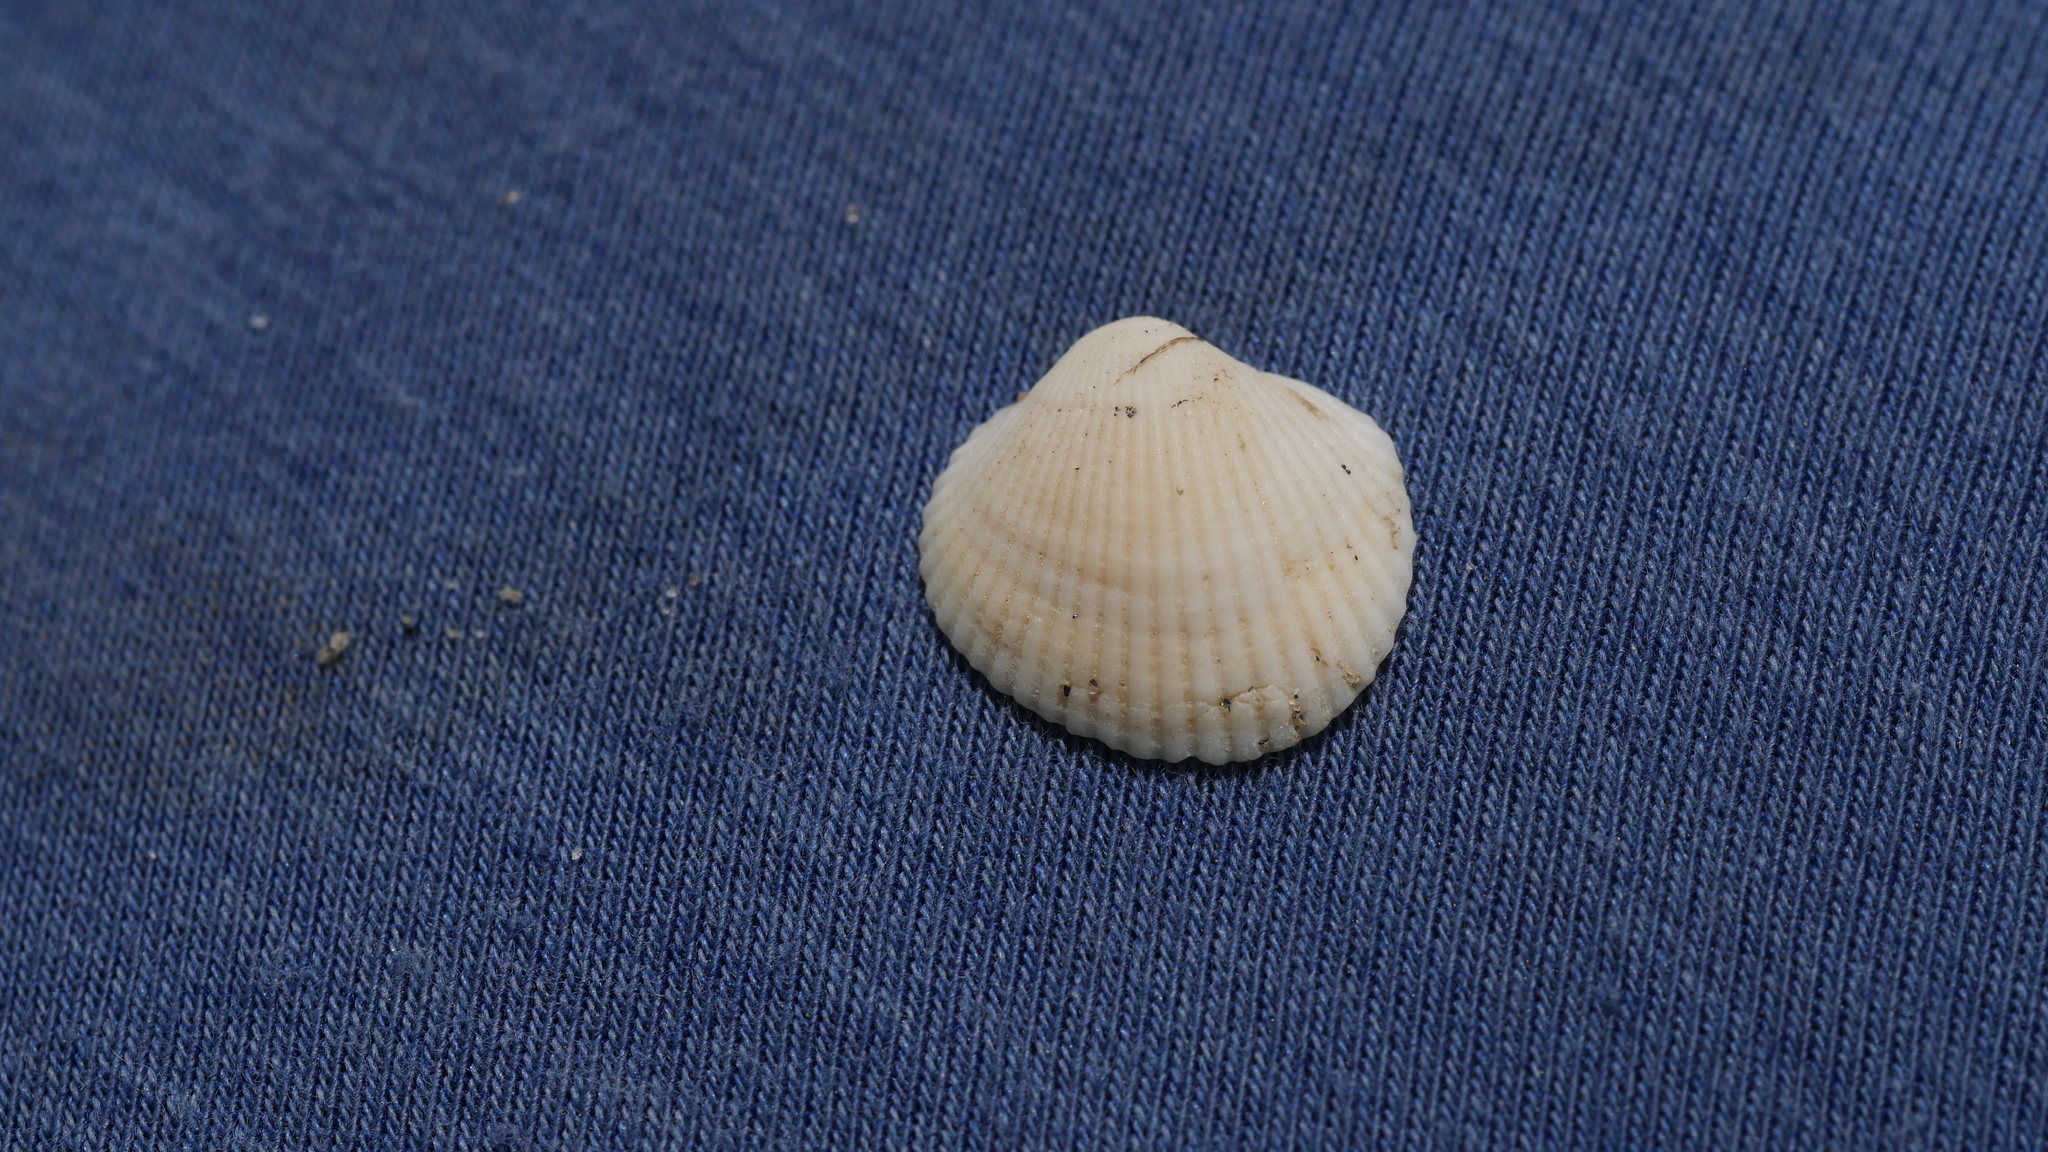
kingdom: Animalia
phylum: Mollusca
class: Bivalvia
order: Arcida
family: Arcidae
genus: Lunarca
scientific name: Lunarca ovalis
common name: Blood ark
